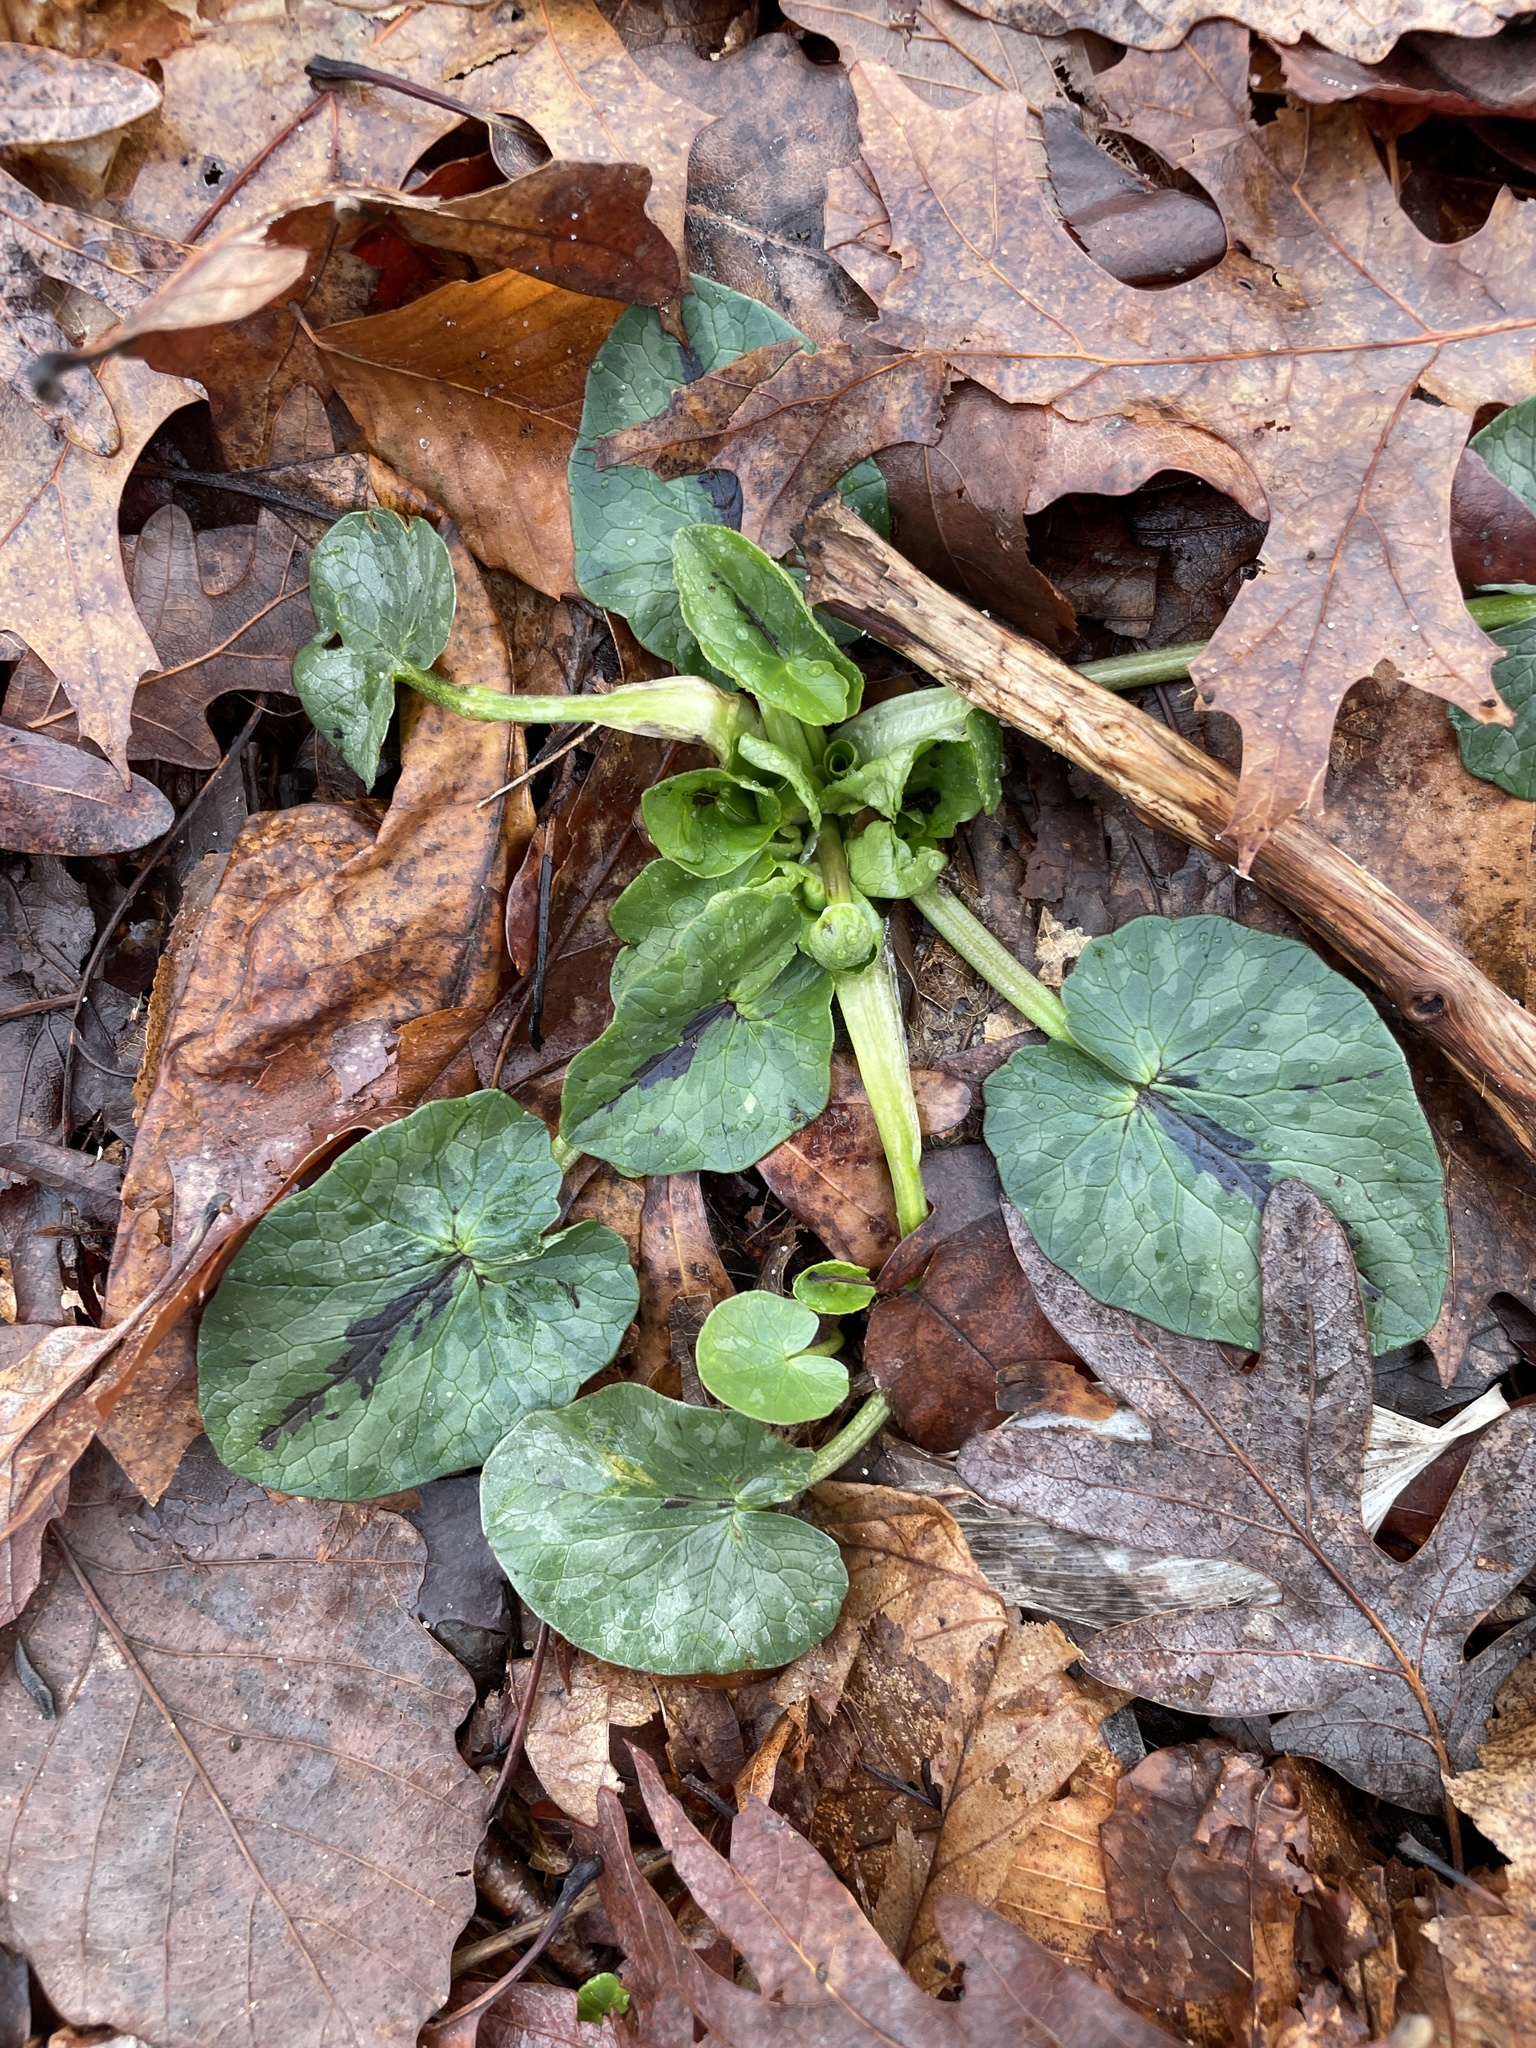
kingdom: Plantae
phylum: Tracheophyta
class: Magnoliopsida
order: Ranunculales
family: Ranunculaceae
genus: Ficaria
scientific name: Ficaria verna
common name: Lesser celandine
